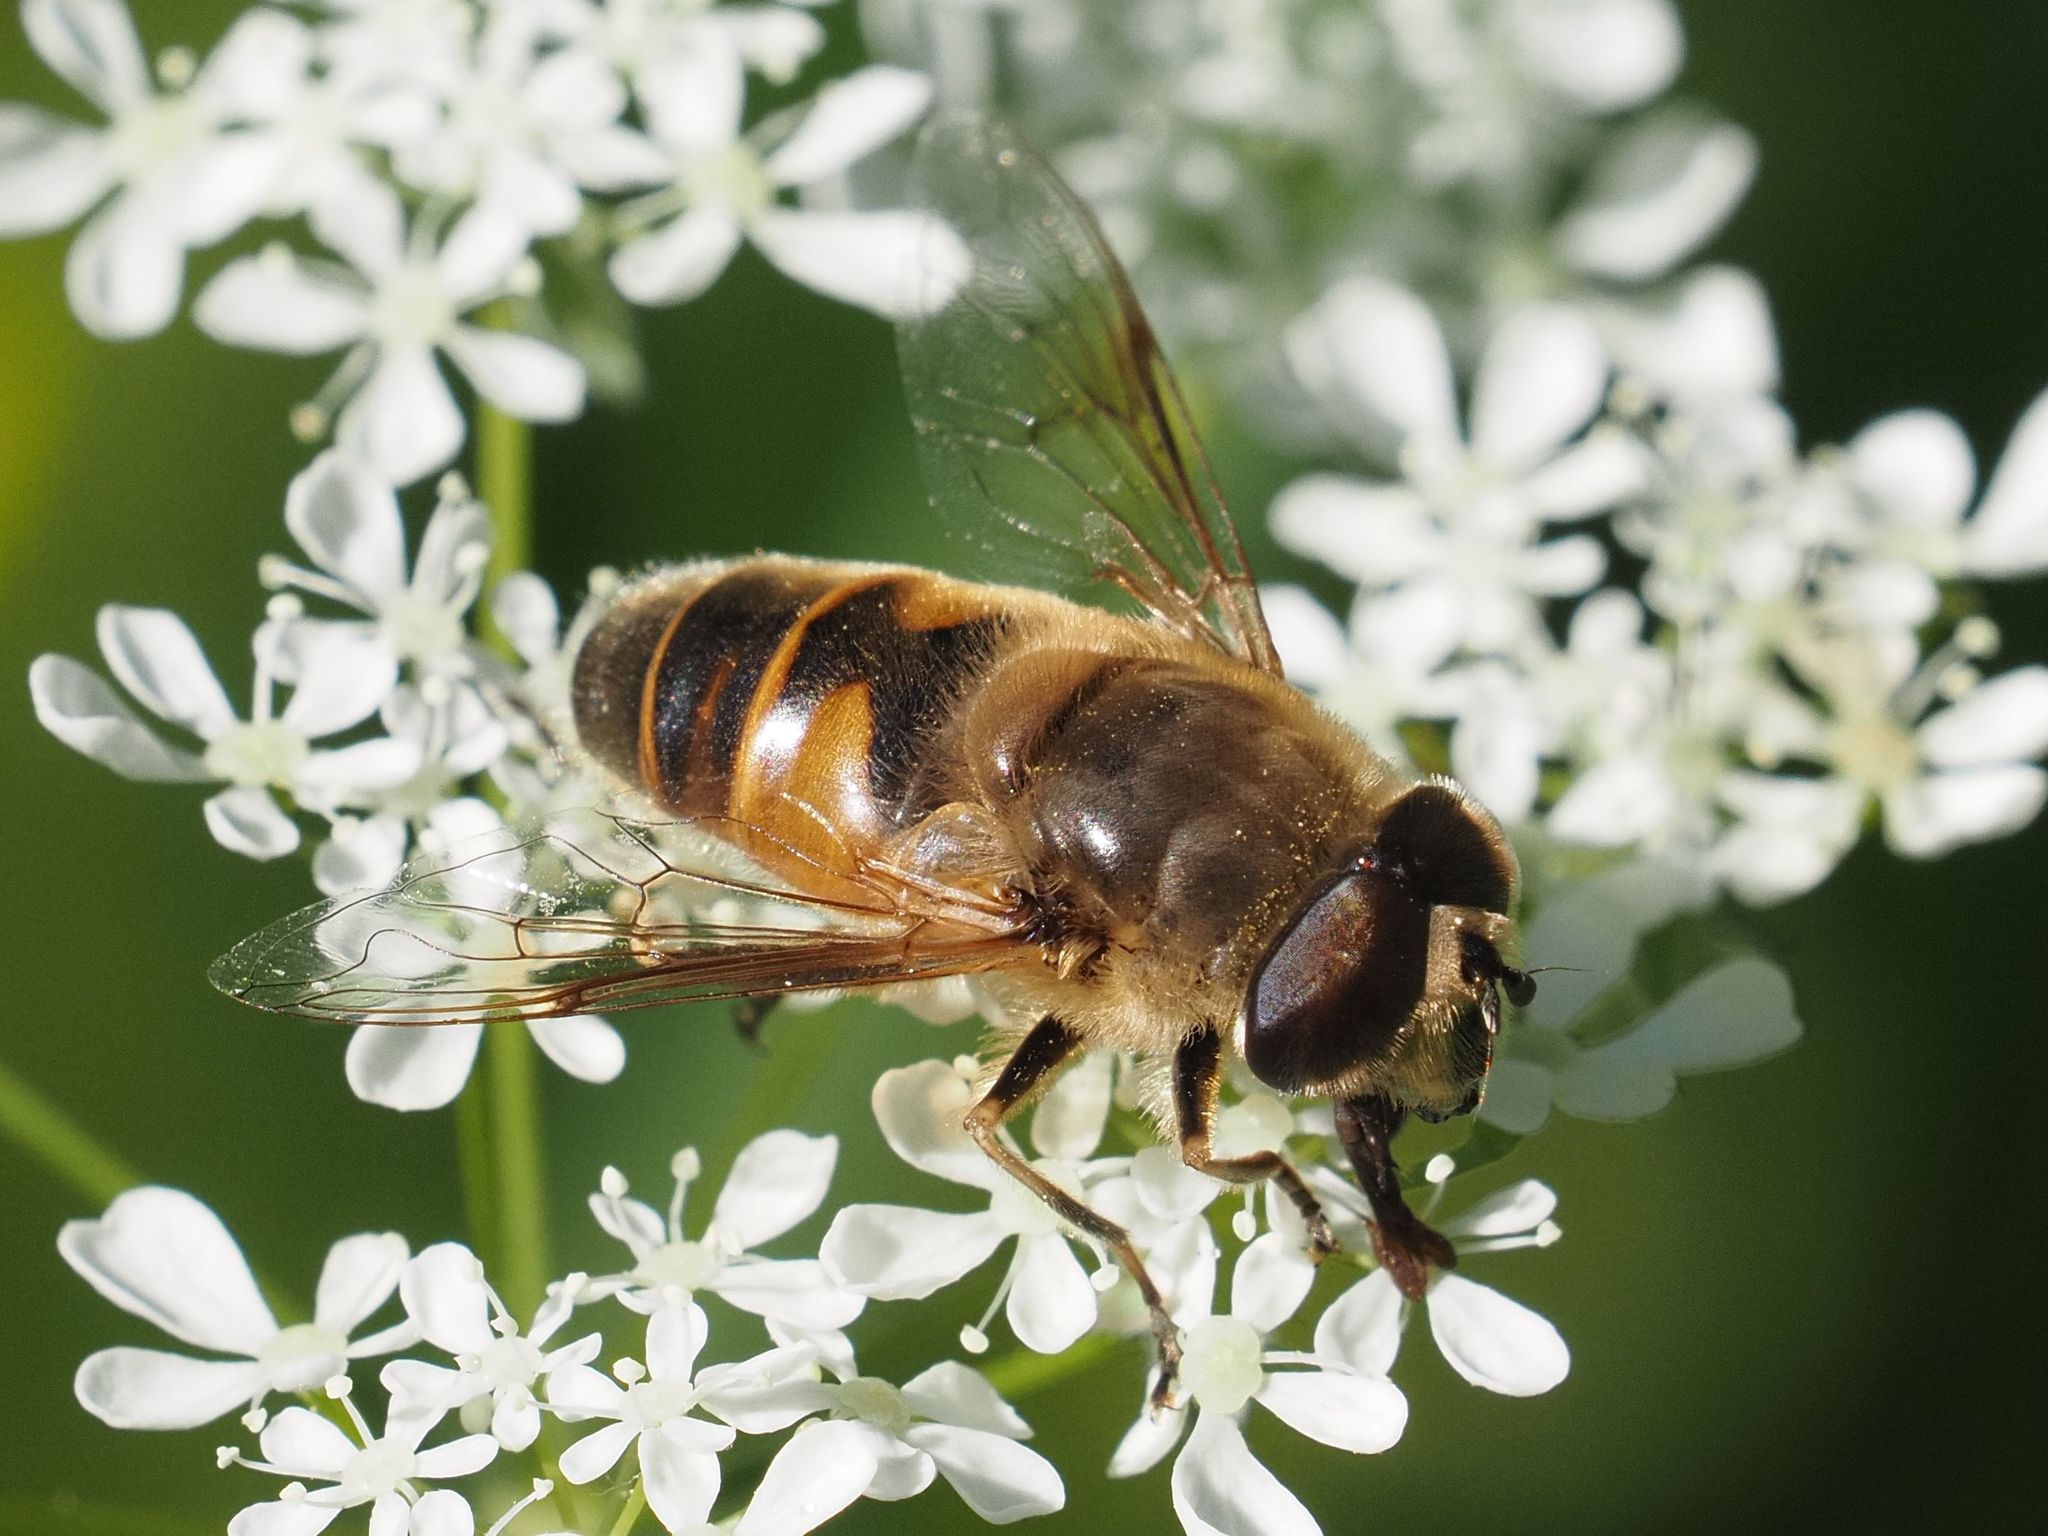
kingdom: Animalia
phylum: Arthropoda
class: Insecta
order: Diptera
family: Syrphidae
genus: Eristalis
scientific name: Eristalis tenax
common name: Drone fly
